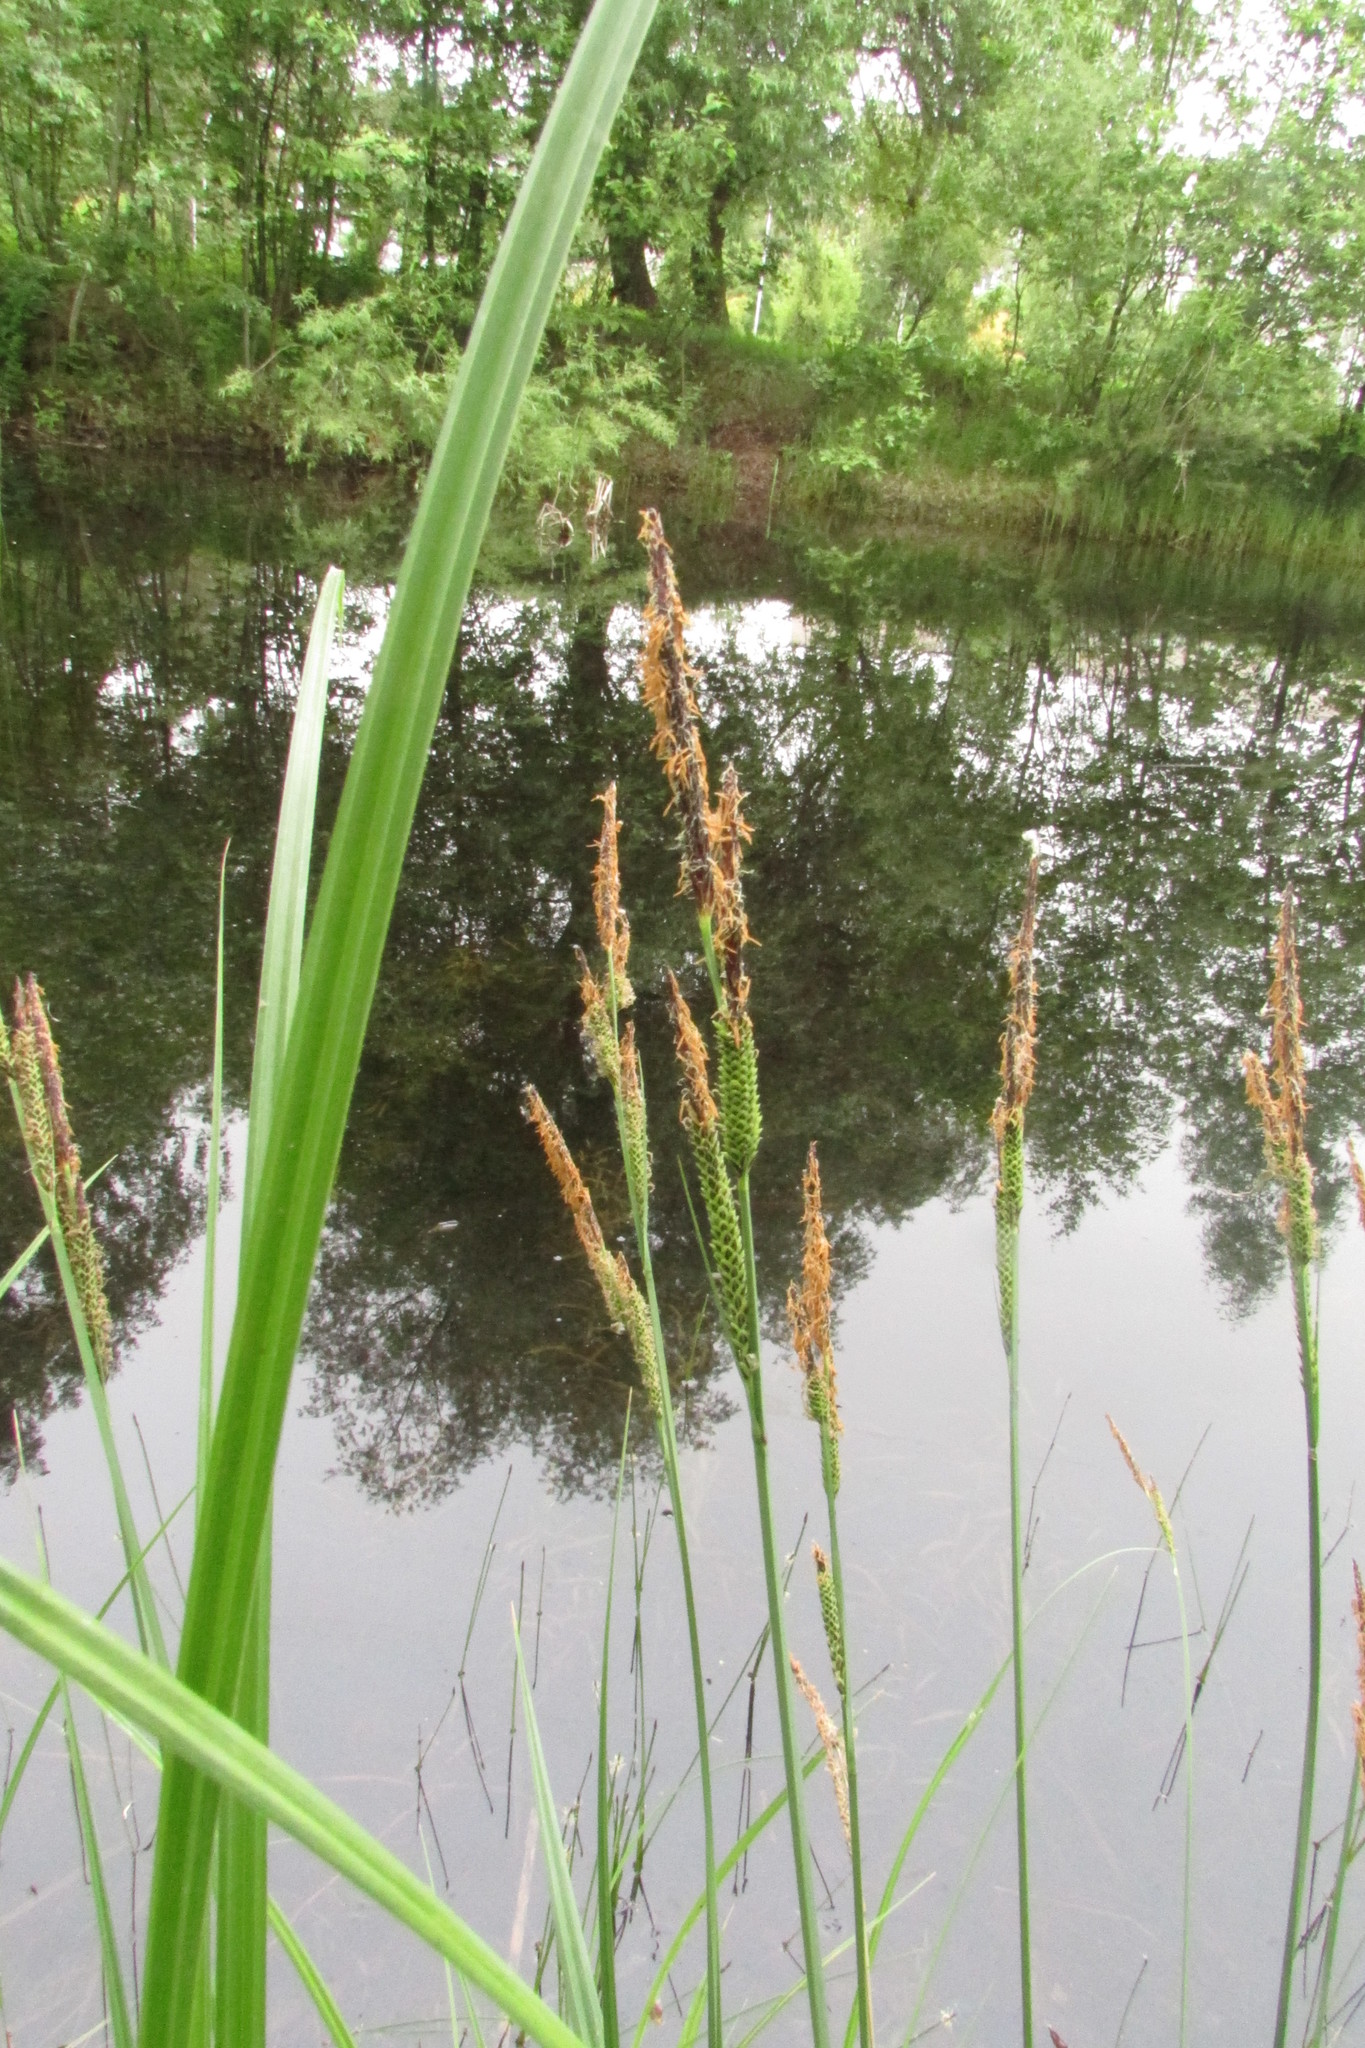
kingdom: Plantae
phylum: Tracheophyta
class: Liliopsida
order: Poales
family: Cyperaceae
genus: Carex
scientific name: Carex acuta
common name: Slender tufted-sedge
